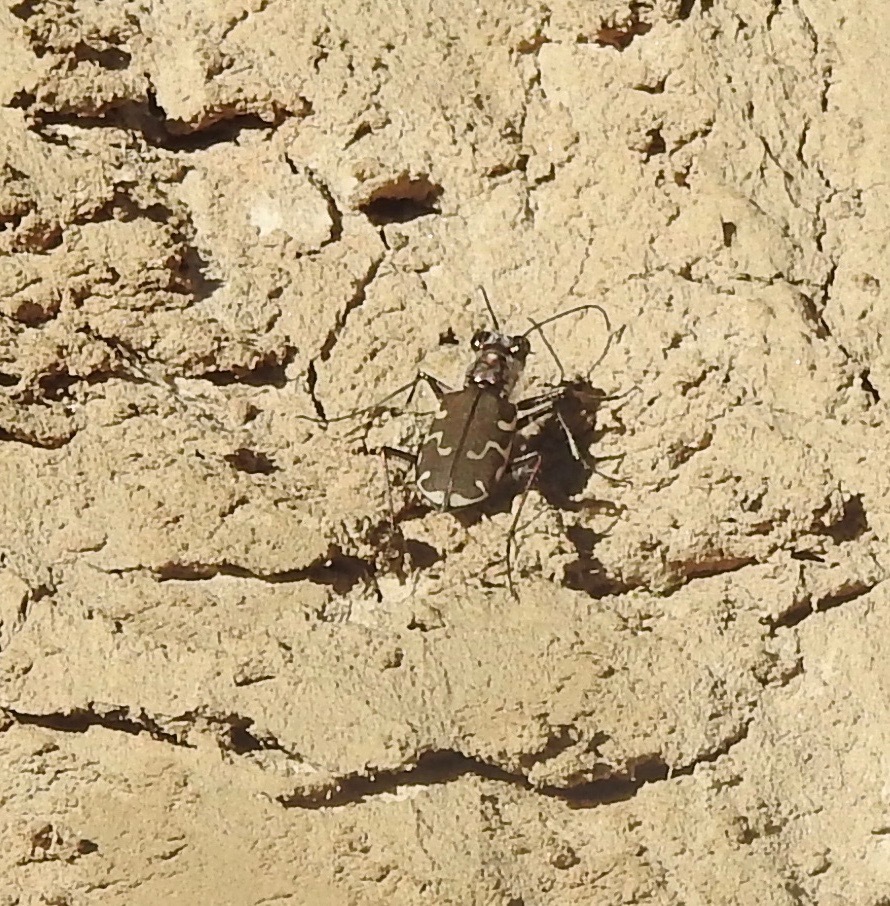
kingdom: Animalia
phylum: Arthropoda
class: Insecta
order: Coleoptera
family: Carabidae
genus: Cicindela
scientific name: Cicindela repanda
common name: Bronzed tiger beetle
